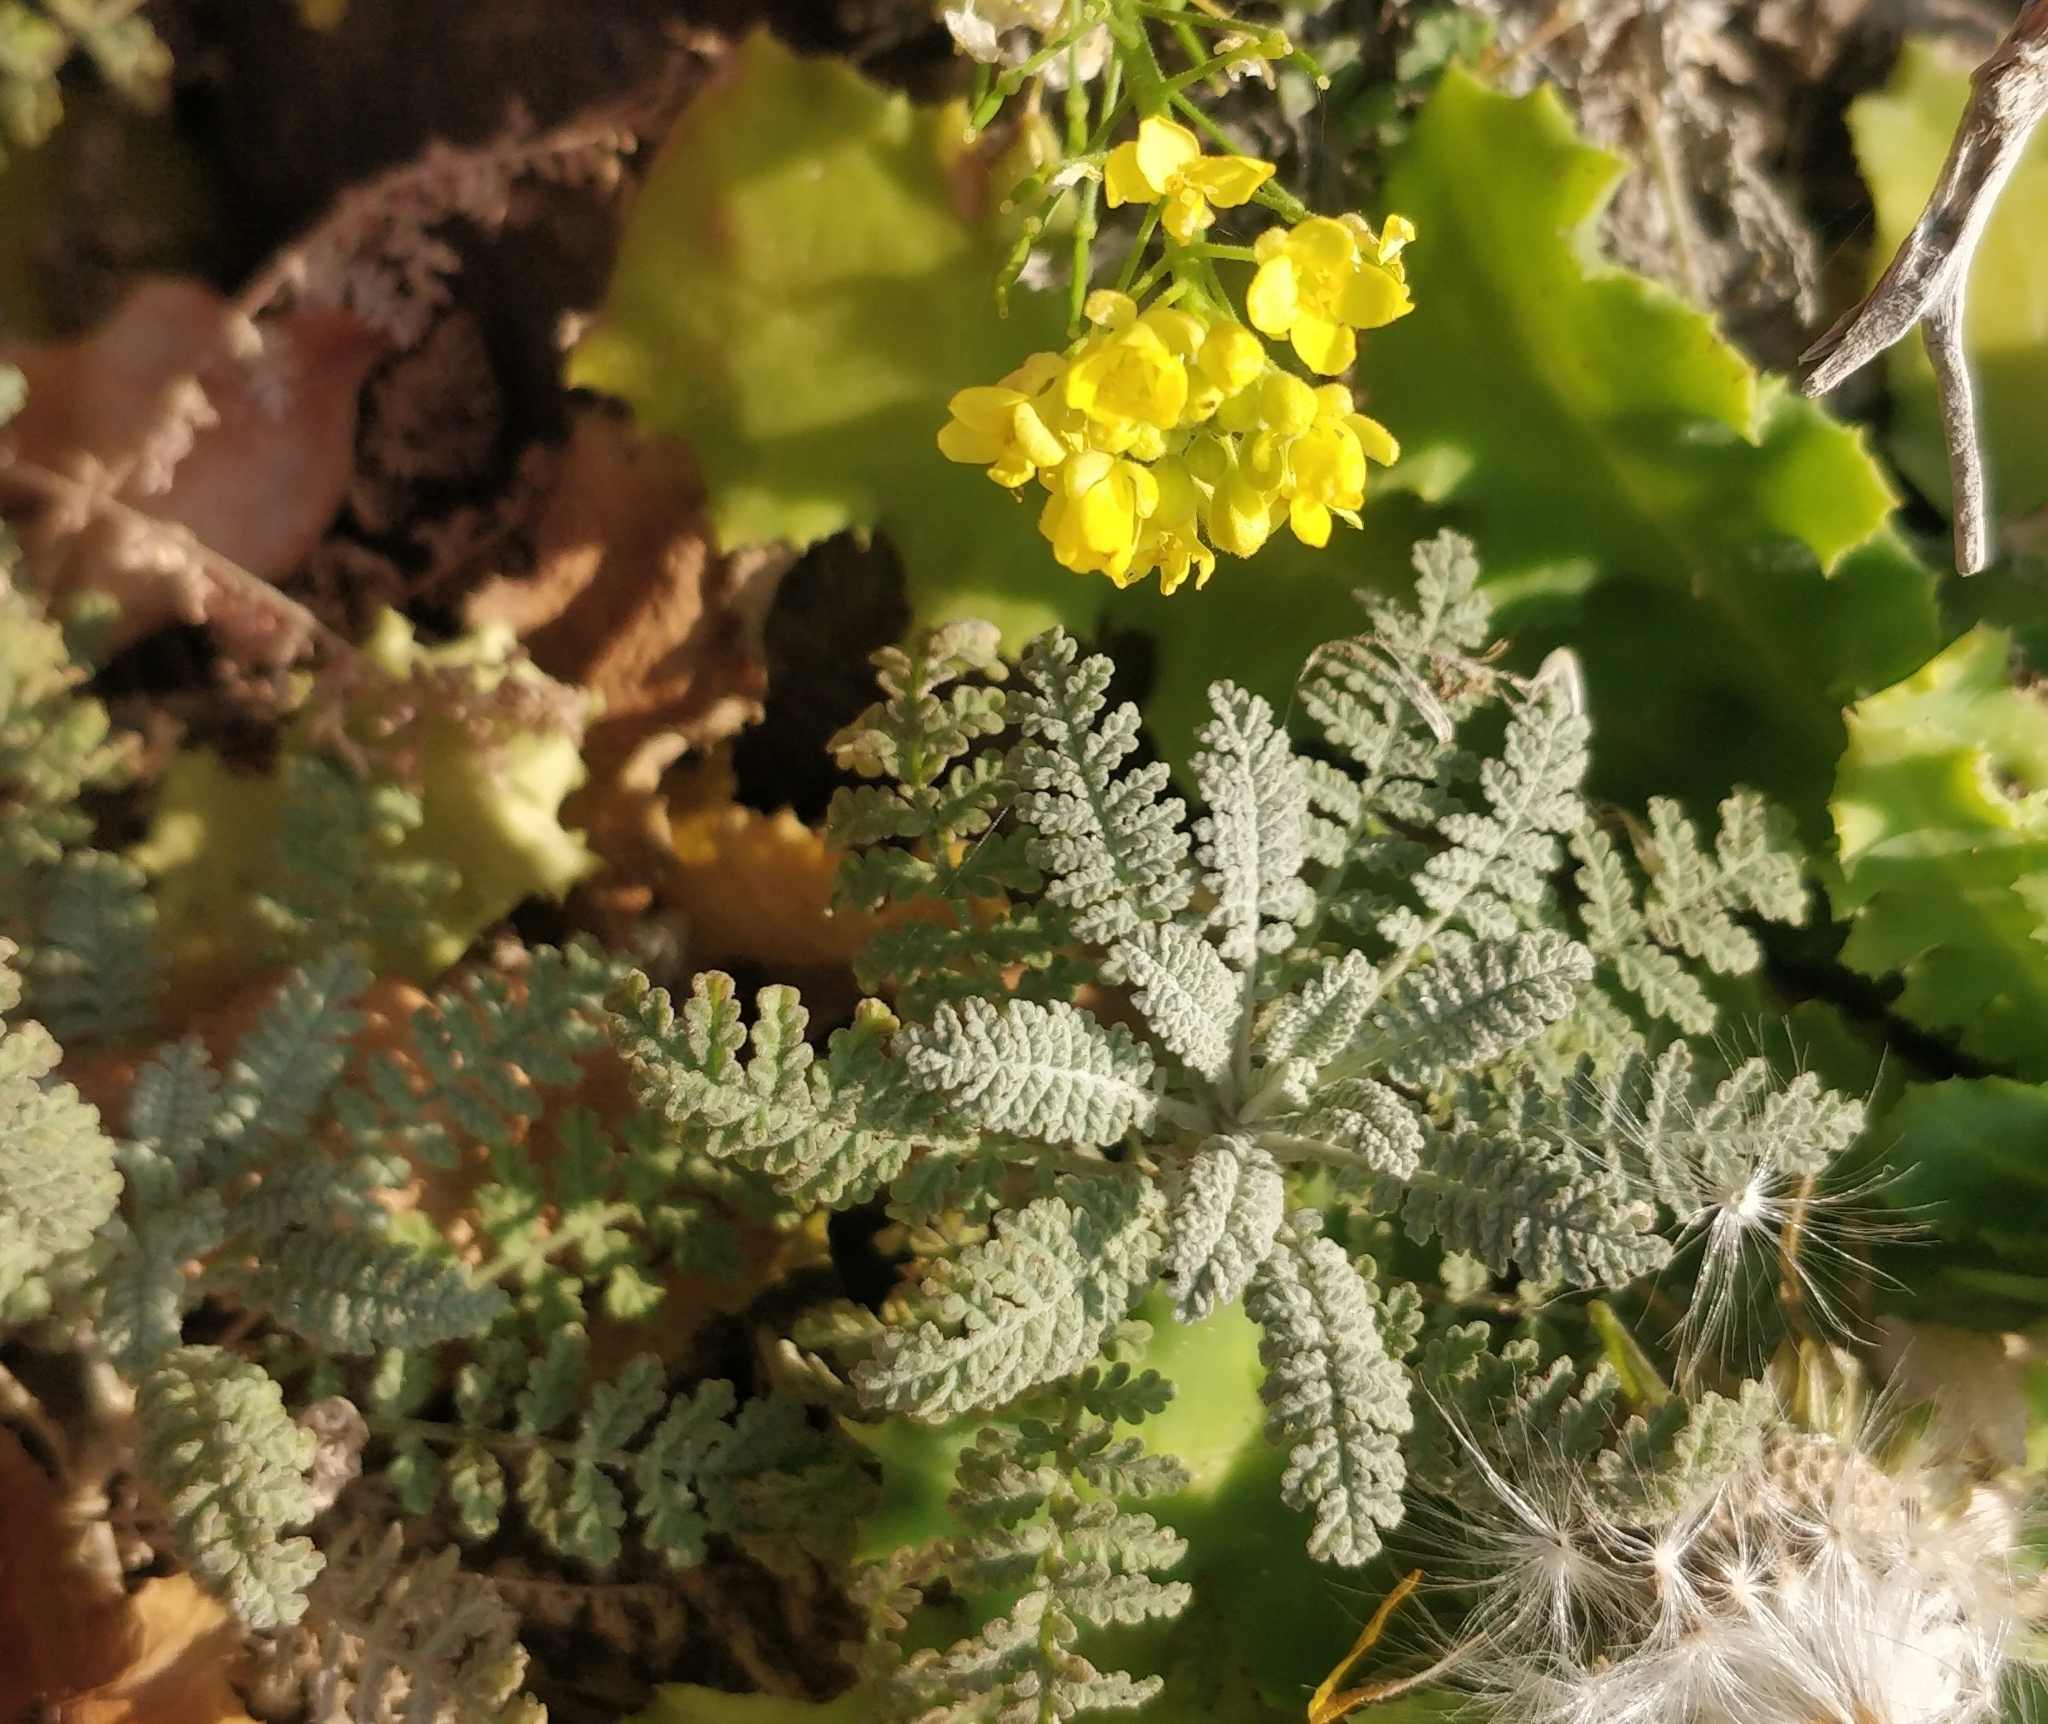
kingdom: Plantae
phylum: Tracheophyta
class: Magnoliopsida
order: Brassicales
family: Brassicaceae
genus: Descurainia
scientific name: Descurainia millefolia
